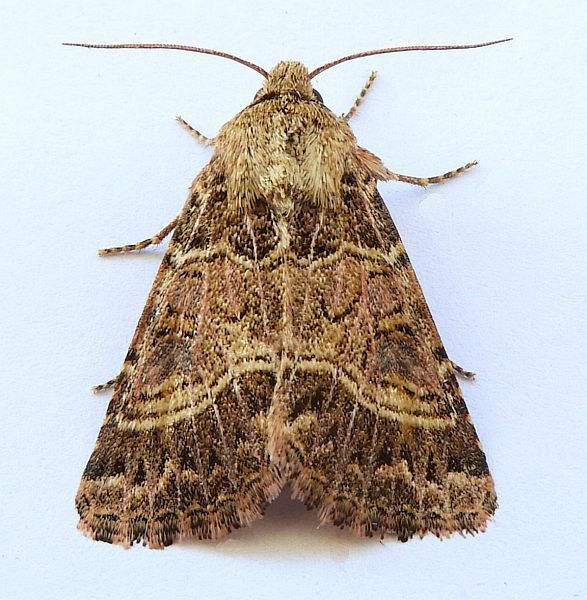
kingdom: Animalia
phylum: Arthropoda
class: Insecta
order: Lepidoptera
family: Noctuidae
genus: Schinia
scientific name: Schinia mexicana
